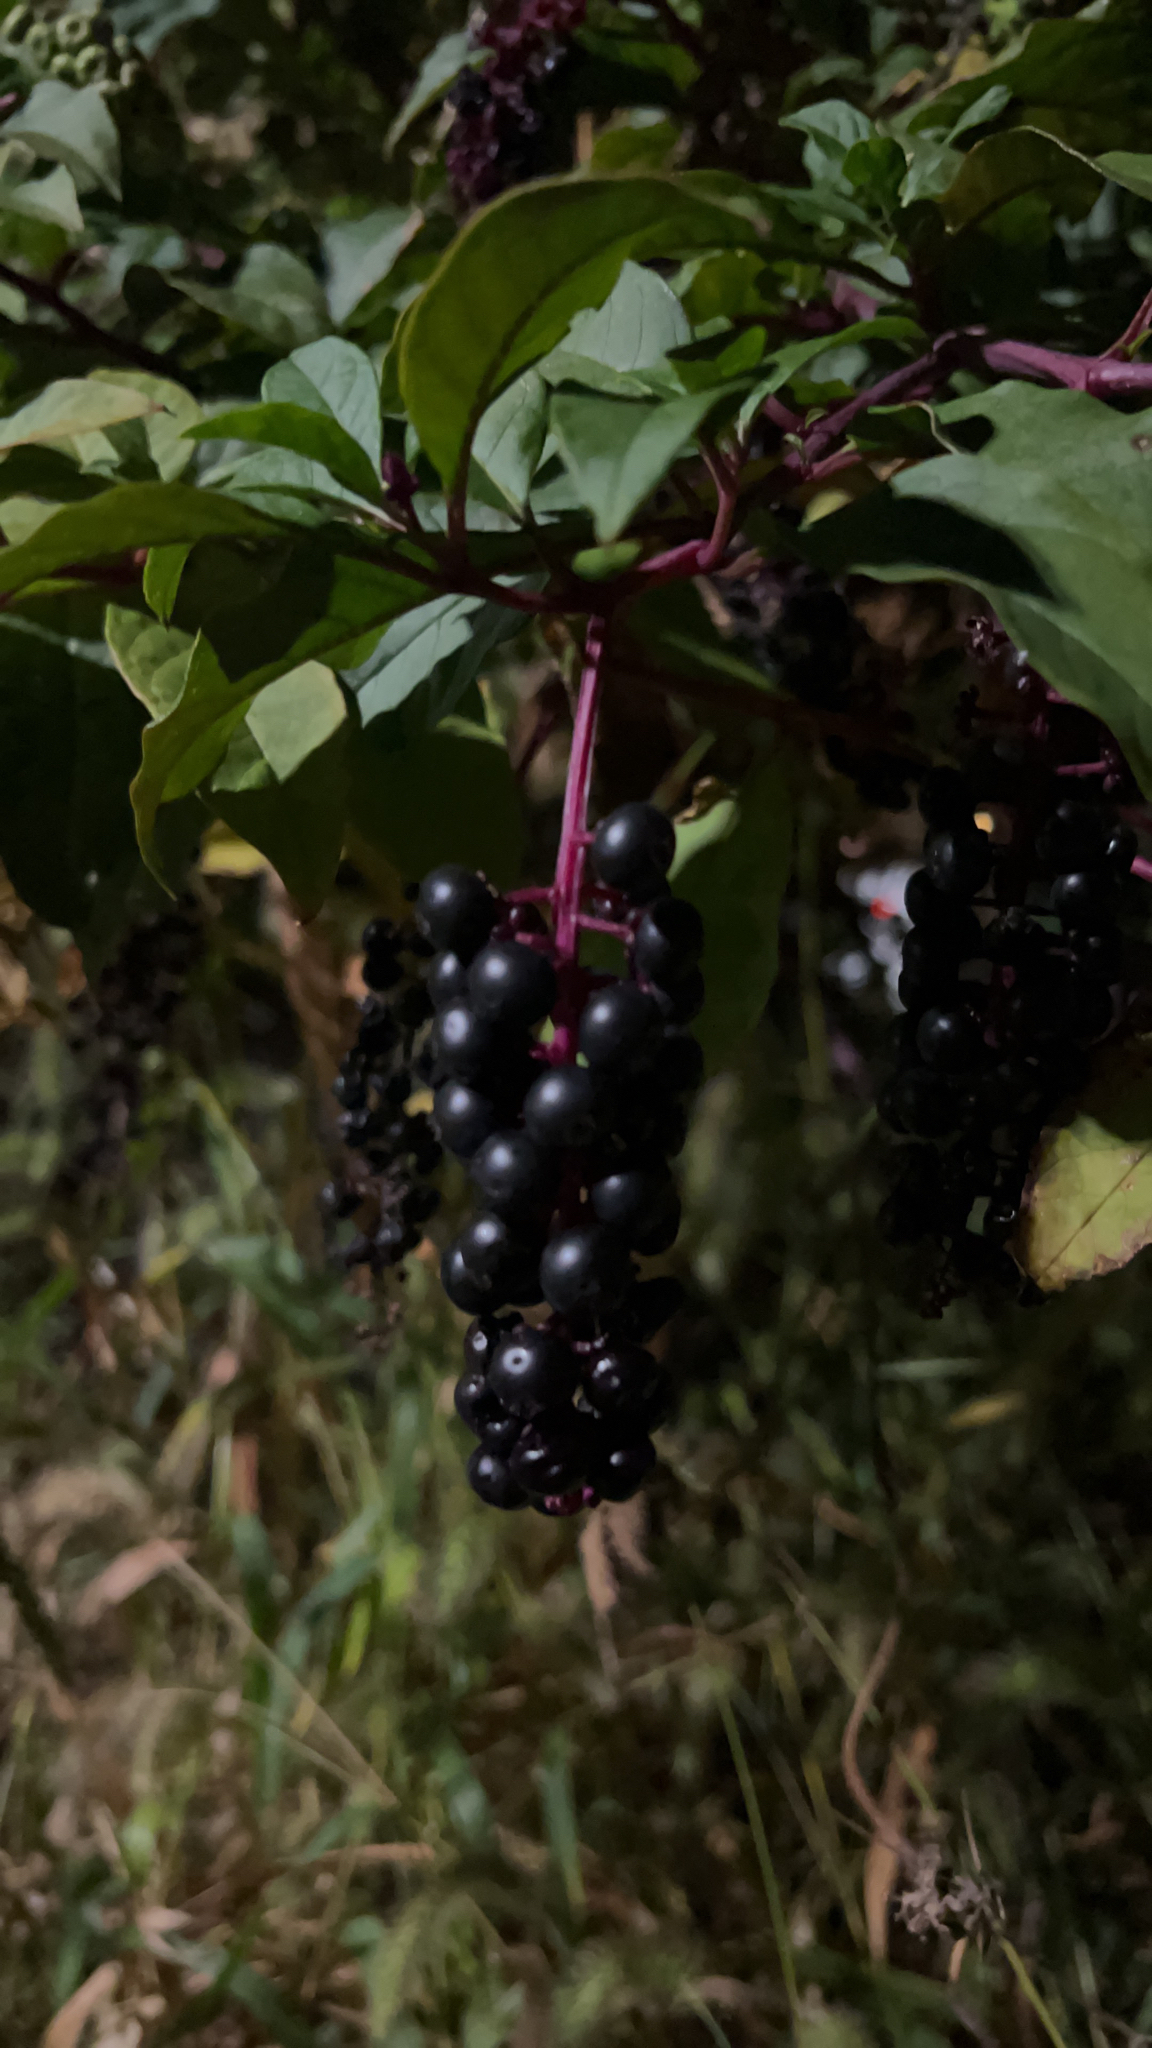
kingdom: Plantae
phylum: Tracheophyta
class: Magnoliopsida
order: Caryophyllales
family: Phytolaccaceae
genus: Phytolacca
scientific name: Phytolacca americana
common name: American pokeweed
